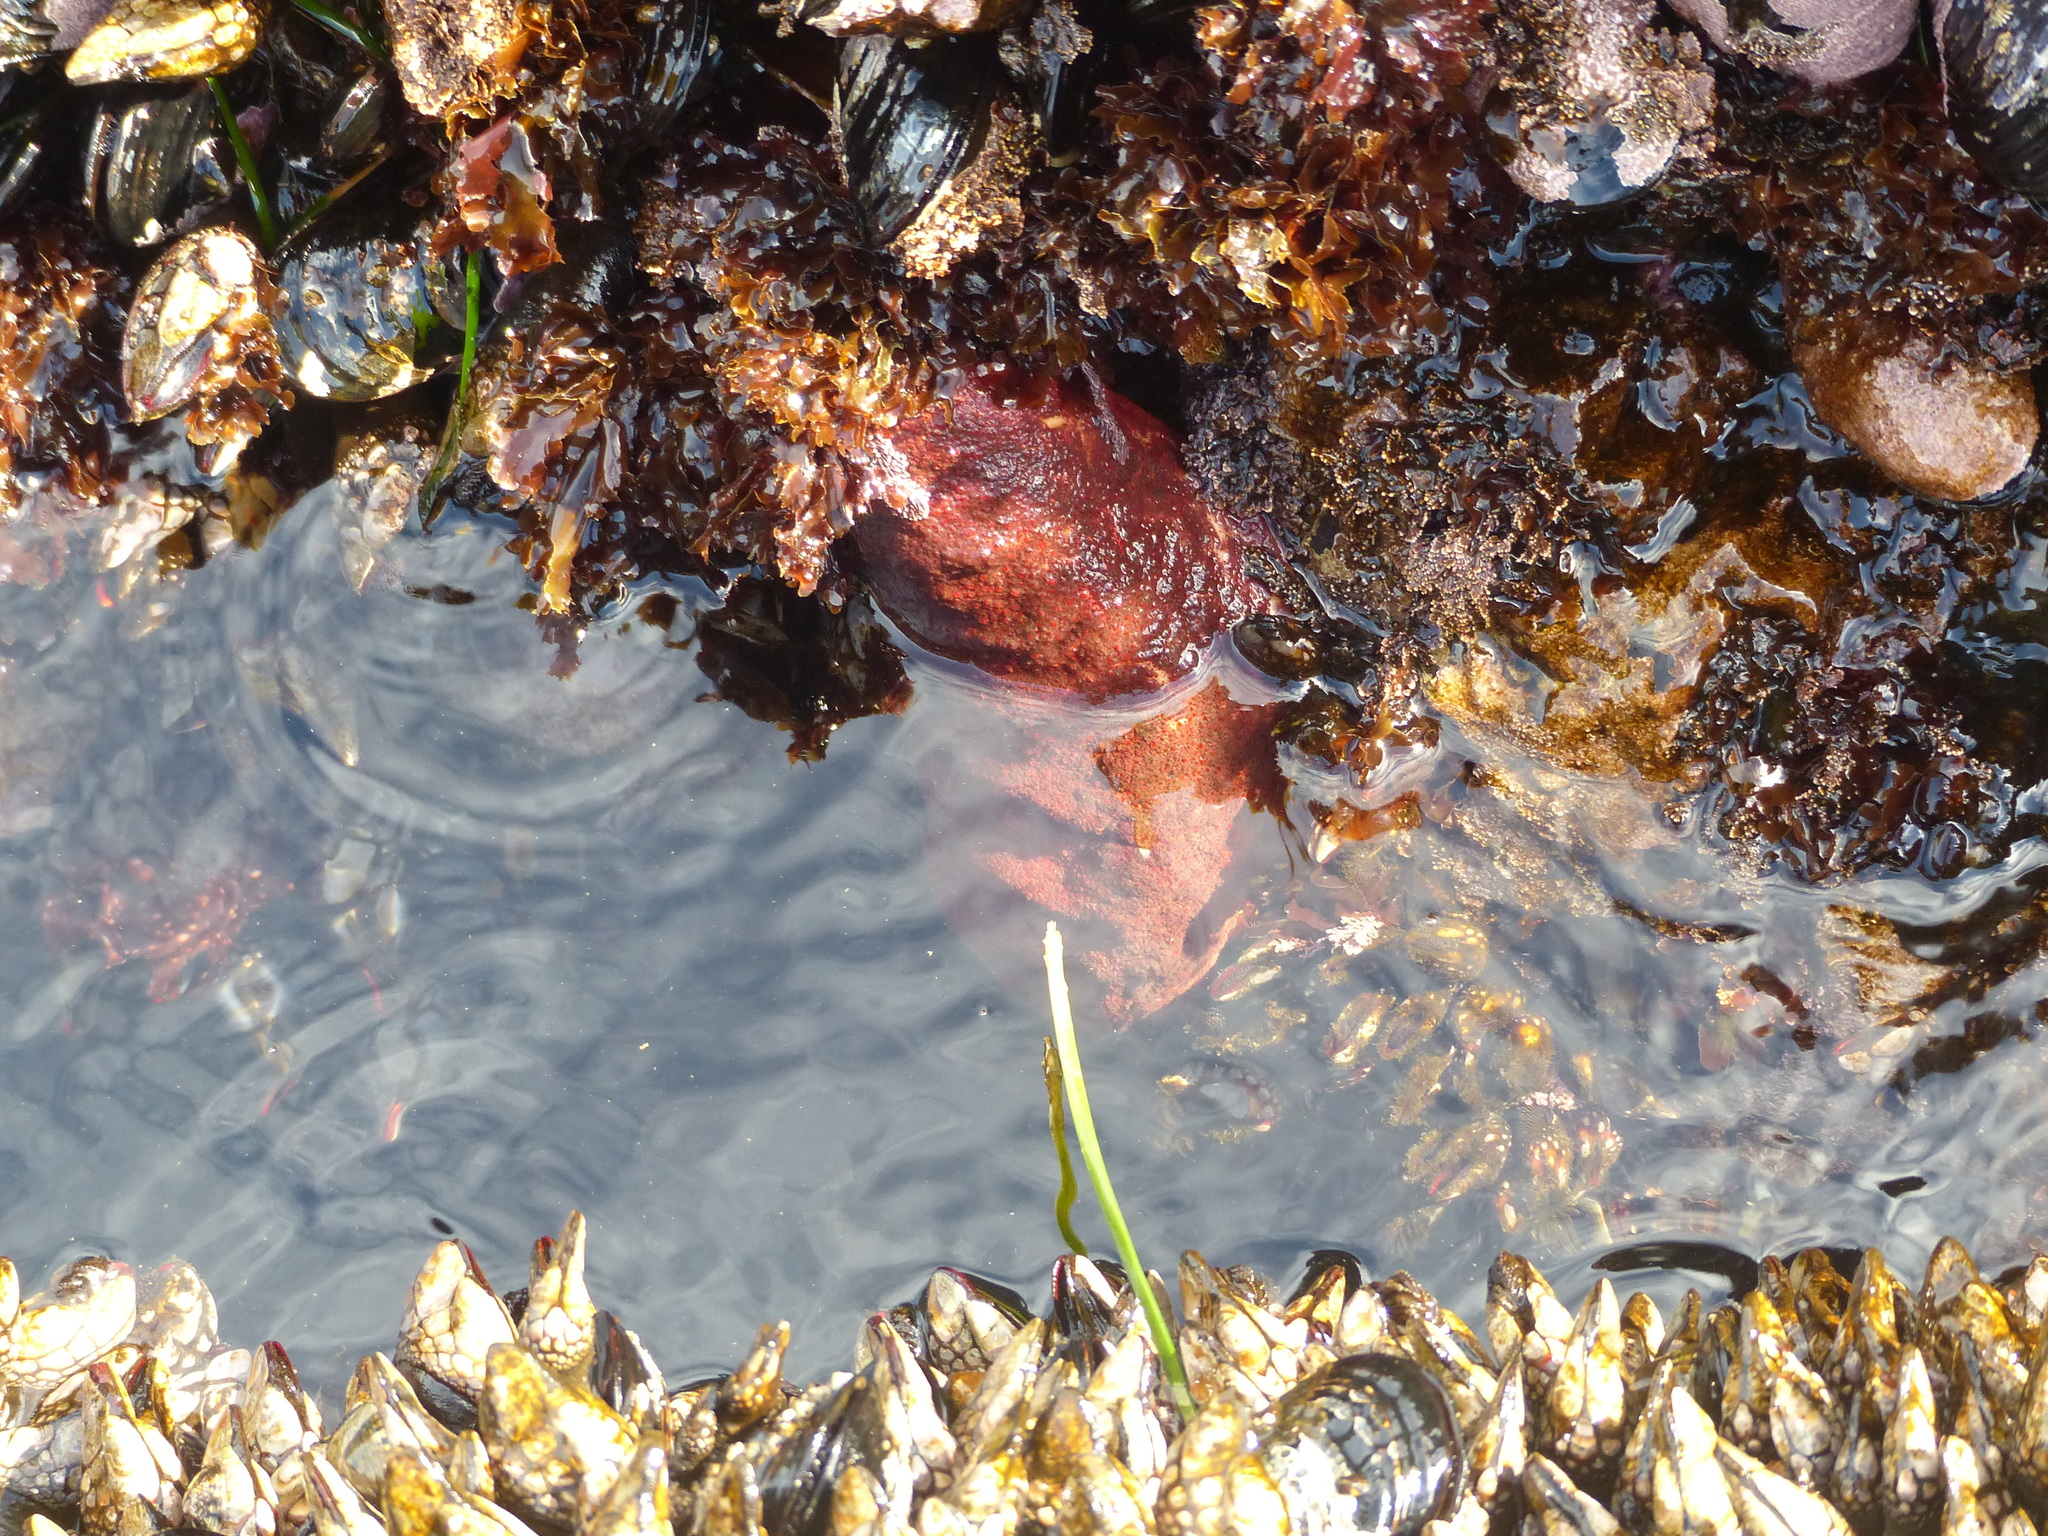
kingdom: Animalia
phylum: Mollusca
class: Polyplacophora
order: Chitonida
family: Acanthochitonidae
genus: Cryptochiton
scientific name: Cryptochiton stelleri
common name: Giant pacific chiton
